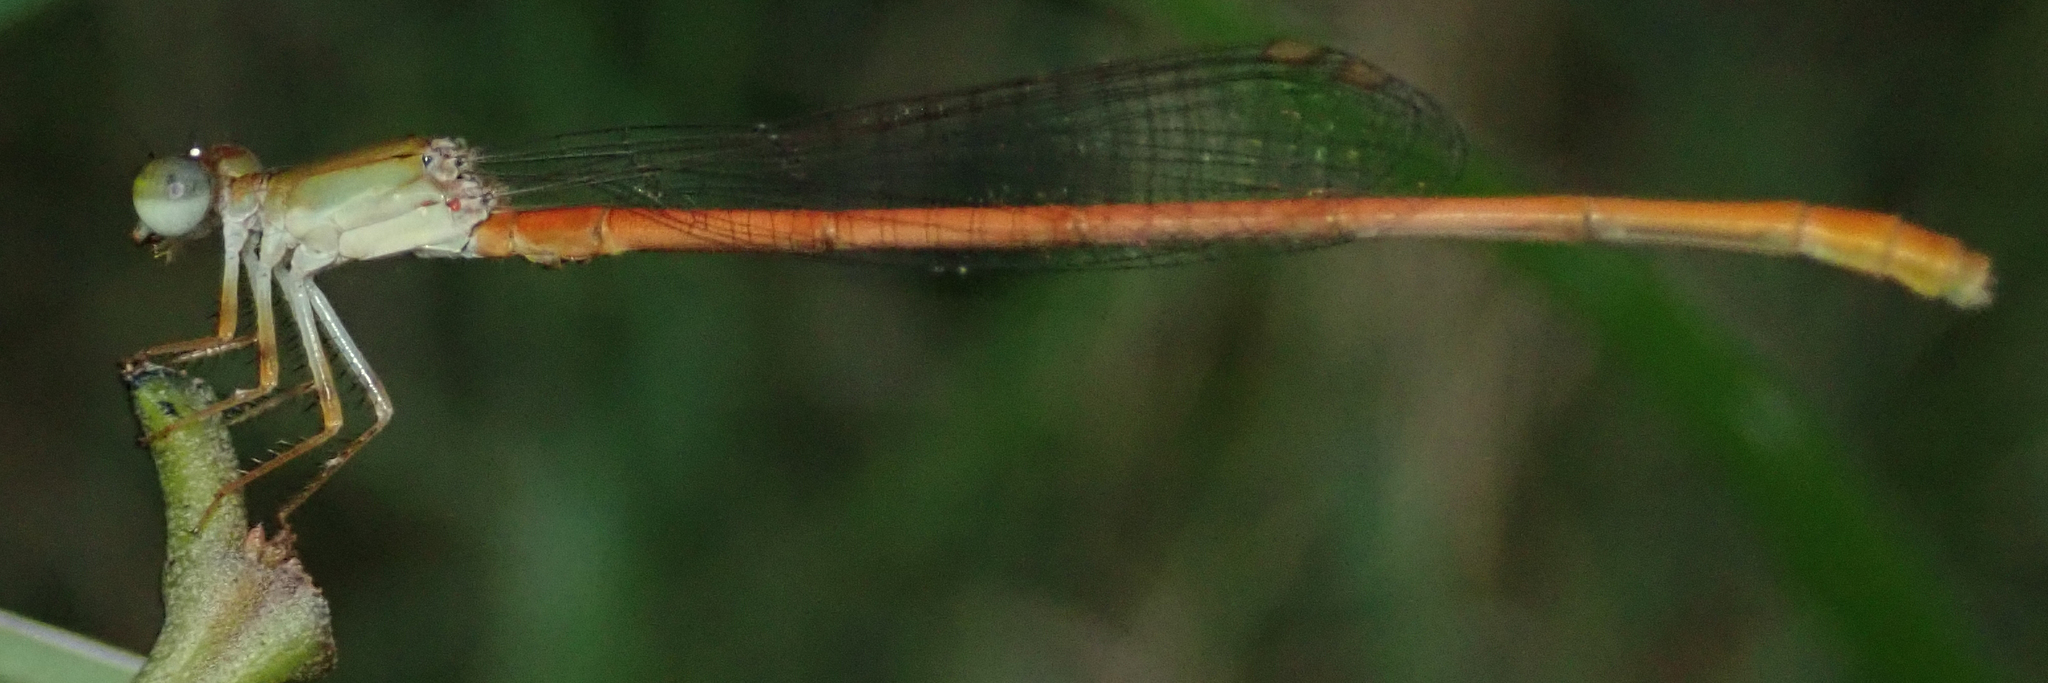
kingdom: Animalia
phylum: Arthropoda
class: Insecta
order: Odonata
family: Coenagrionidae
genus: Ceriagrion
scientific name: Ceriagrion glabrum
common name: Common pond damsel
